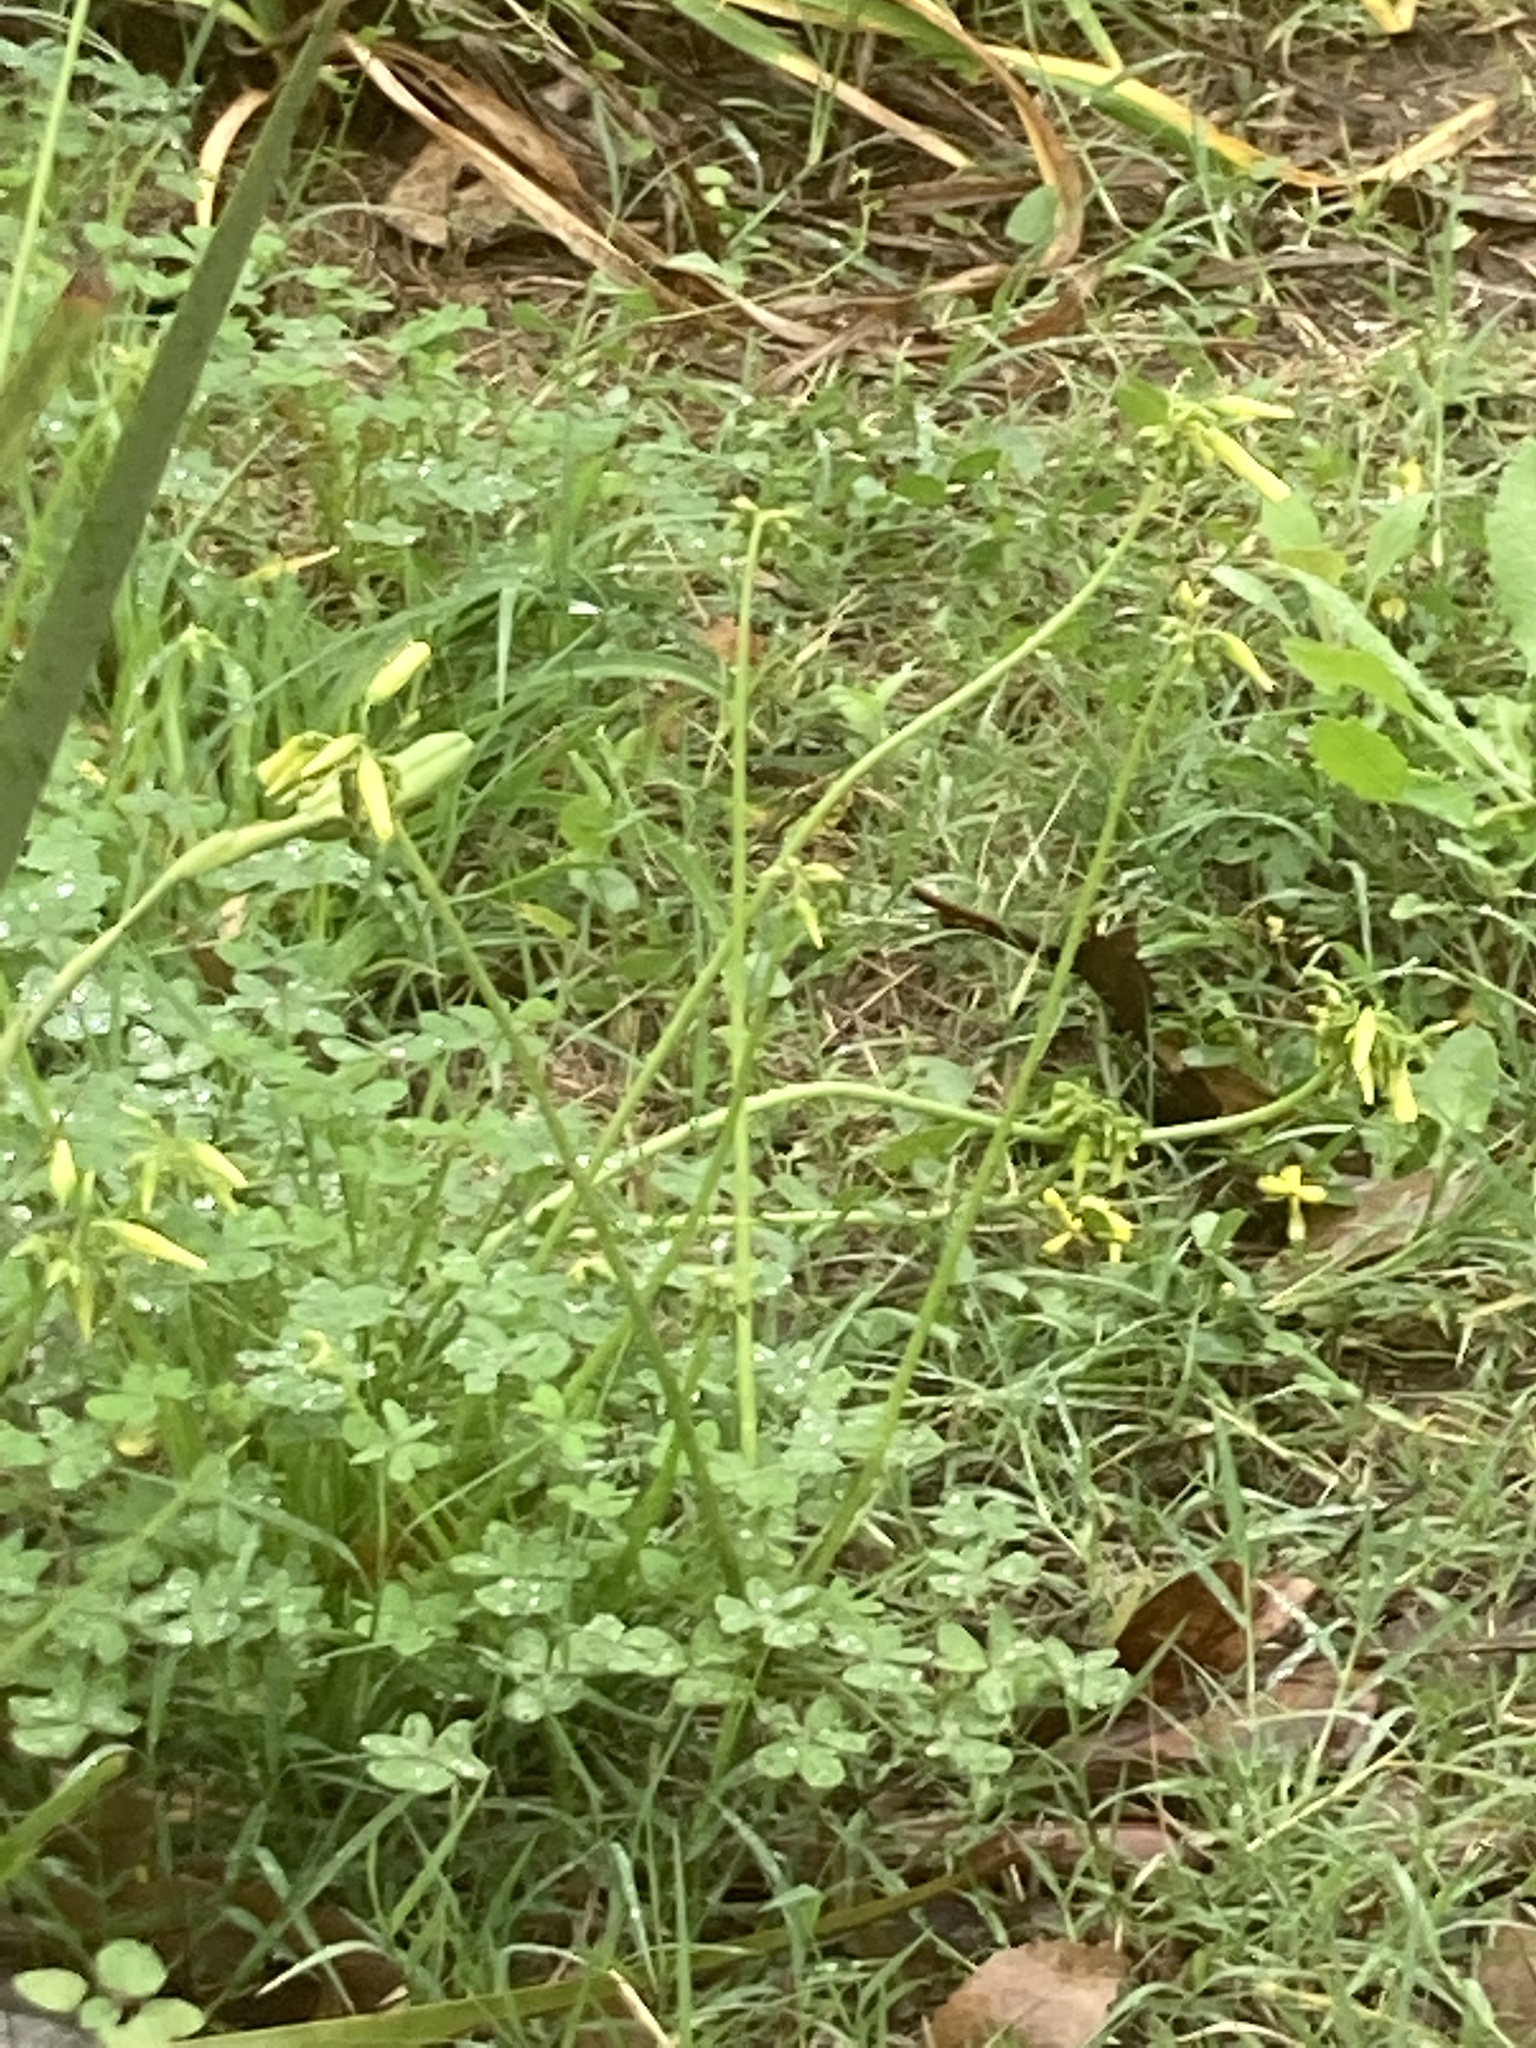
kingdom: Plantae
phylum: Tracheophyta
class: Magnoliopsida
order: Oxalidales
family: Oxalidaceae
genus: Oxalis
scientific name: Oxalis pes-caprae
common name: Bermuda-buttercup
